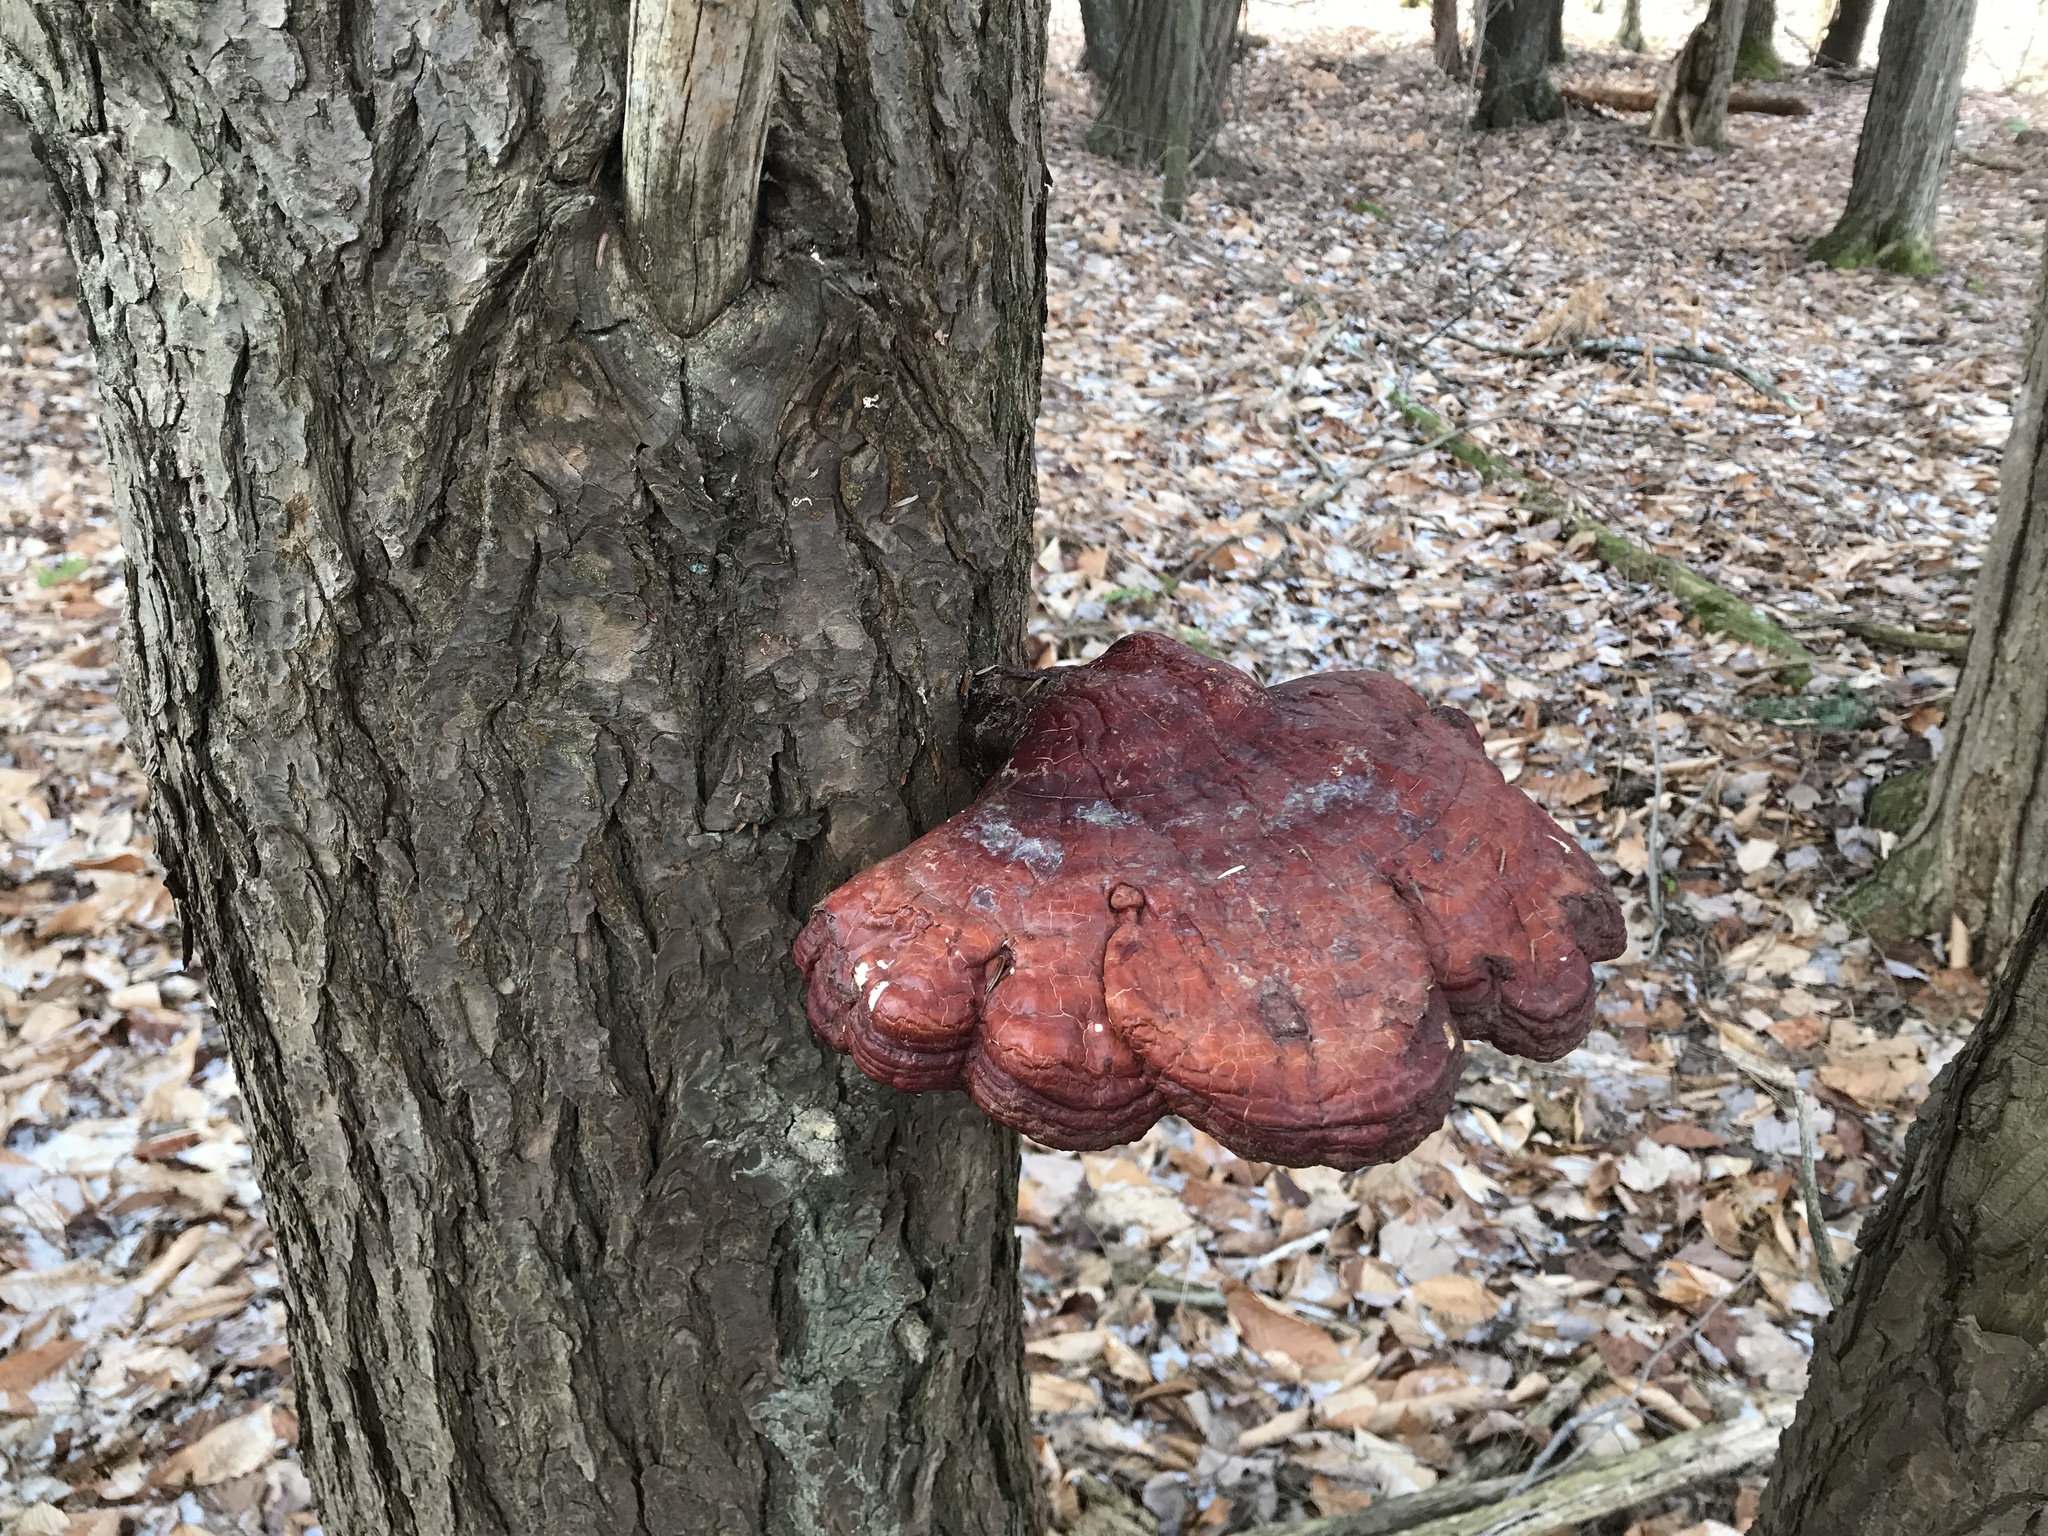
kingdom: Fungi
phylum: Basidiomycota
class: Agaricomycetes
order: Polyporales
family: Polyporaceae
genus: Ganoderma
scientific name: Ganoderma tsugae
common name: Hemlock varnish shelf
